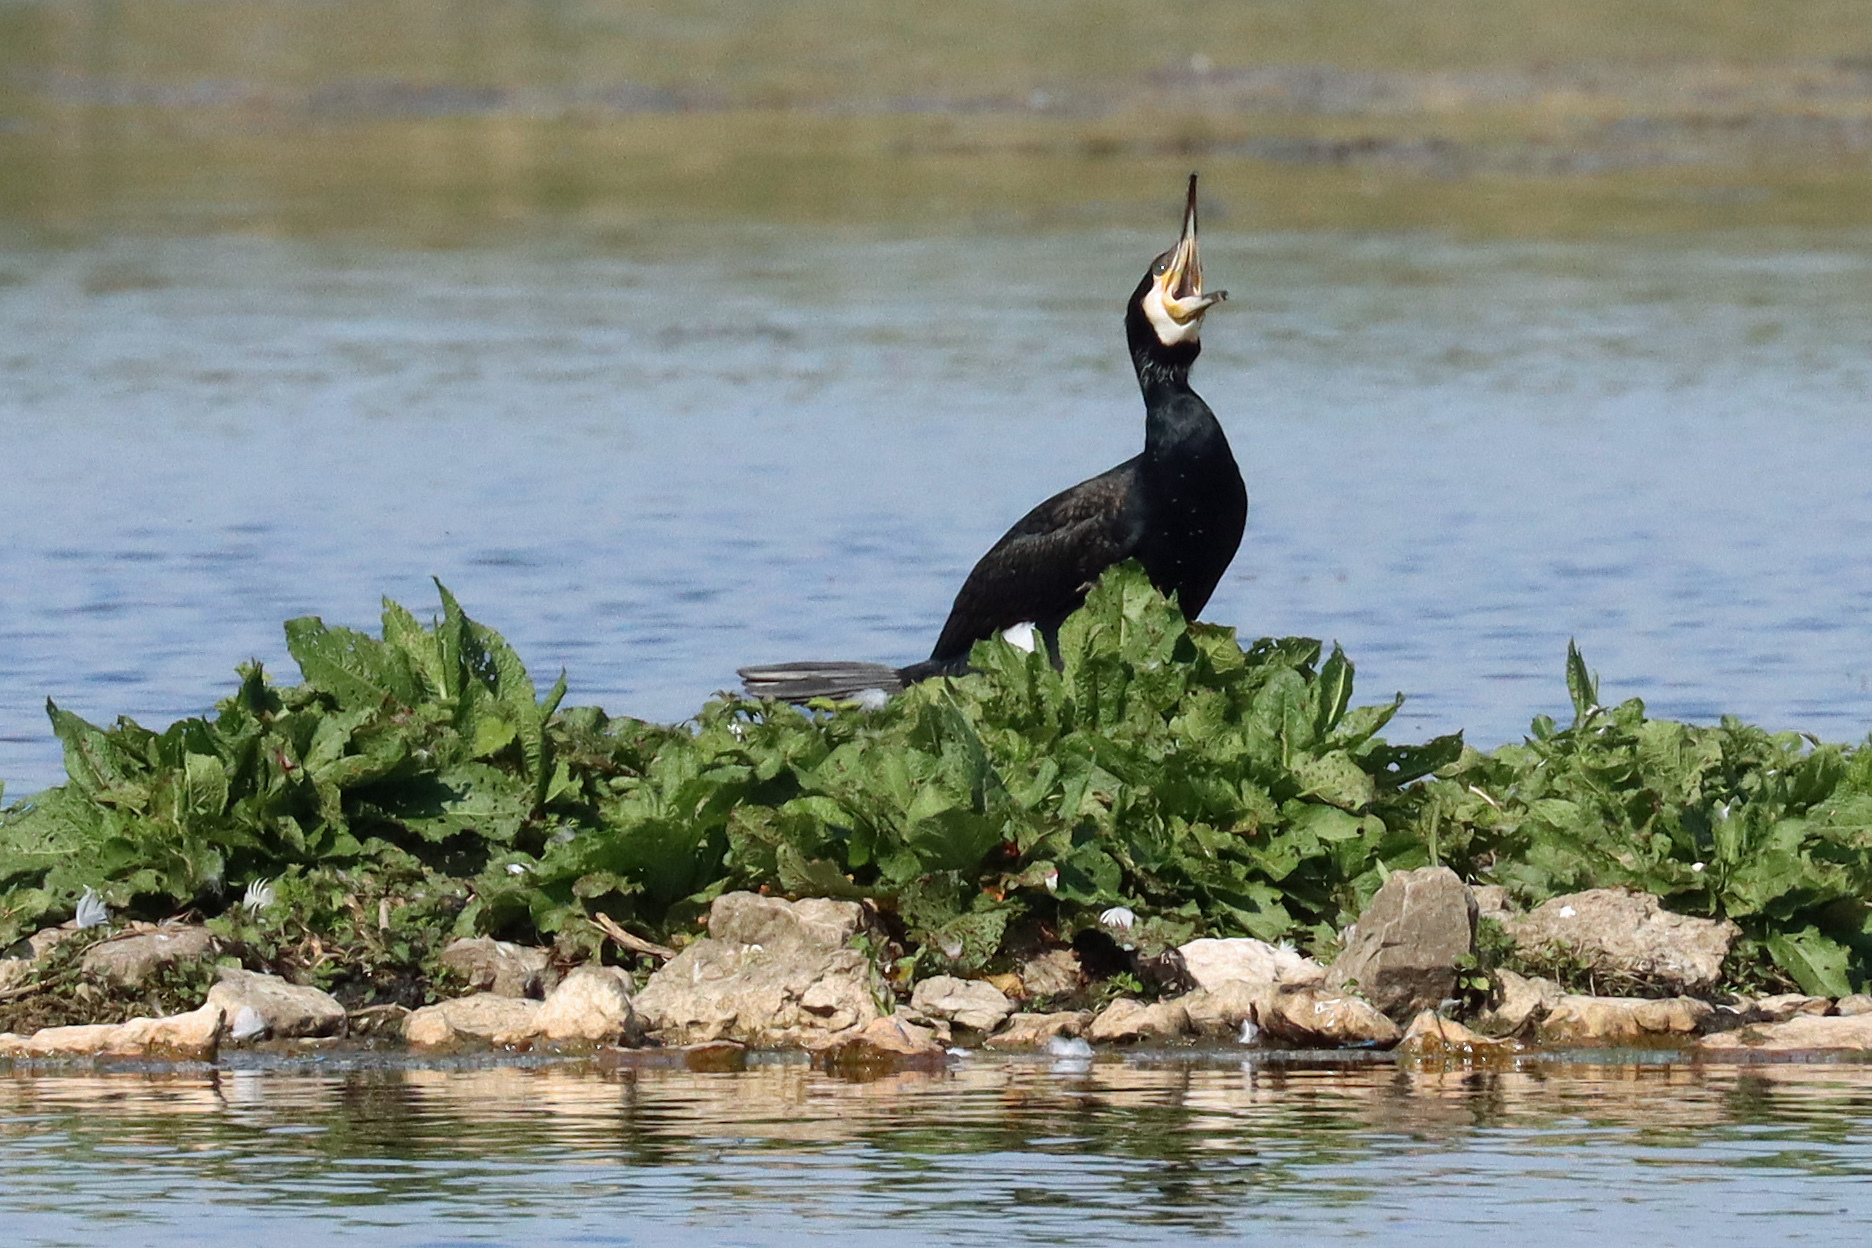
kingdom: Animalia
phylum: Chordata
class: Aves
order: Suliformes
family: Phalacrocoracidae
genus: Phalacrocorax
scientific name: Phalacrocorax carbo
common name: Great cormorant
